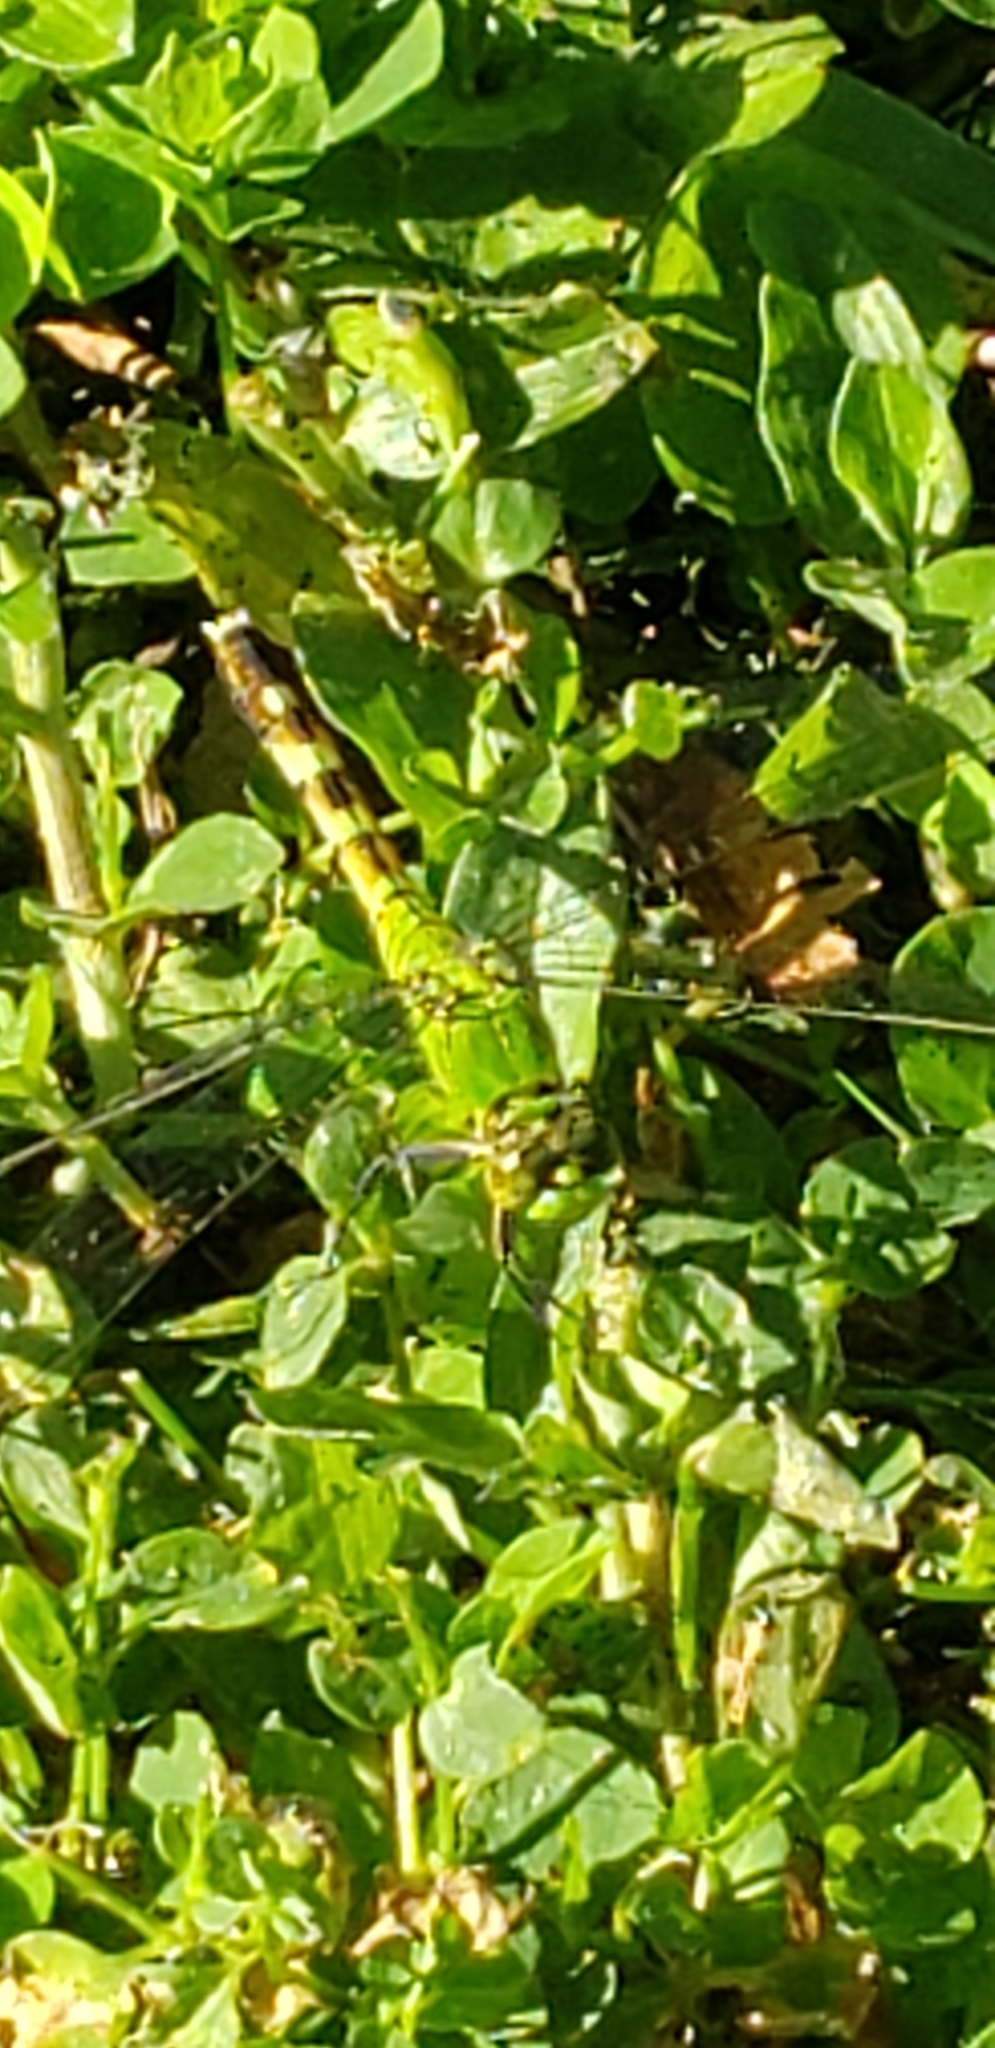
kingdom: Animalia
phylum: Arthropoda
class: Insecta
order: Odonata
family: Libellulidae
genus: Erythemis
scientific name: Erythemis simplicicollis
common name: Eastern pondhawk
